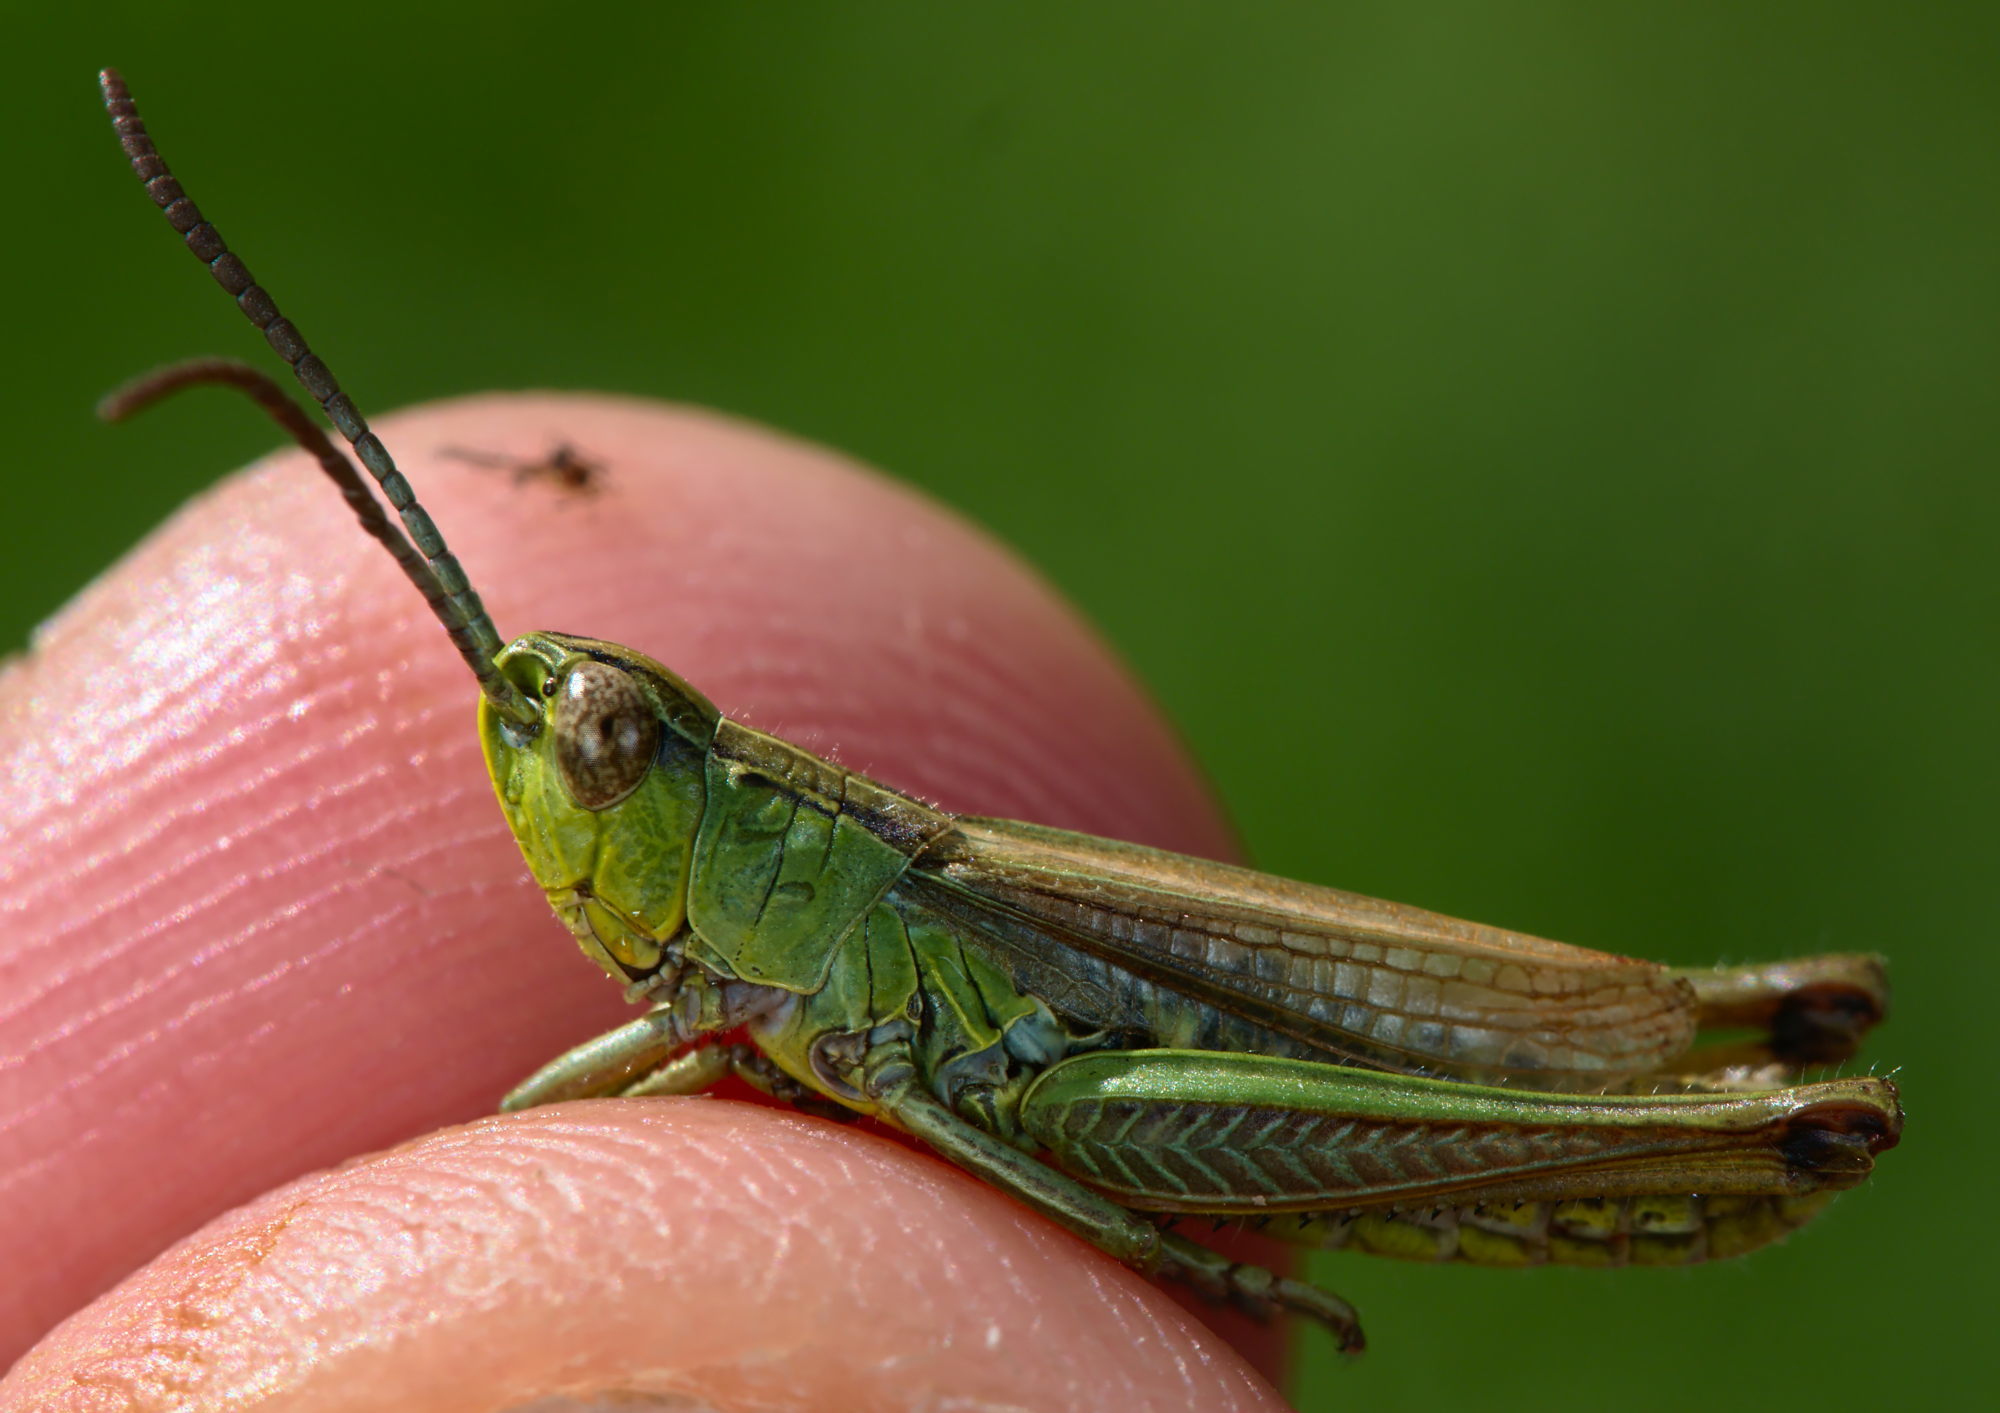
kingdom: Animalia
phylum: Arthropoda
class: Insecta
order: Orthoptera
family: Acrididae
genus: Pseudochorthippus
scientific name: Pseudochorthippus parallelus
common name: Meadow grasshopper
